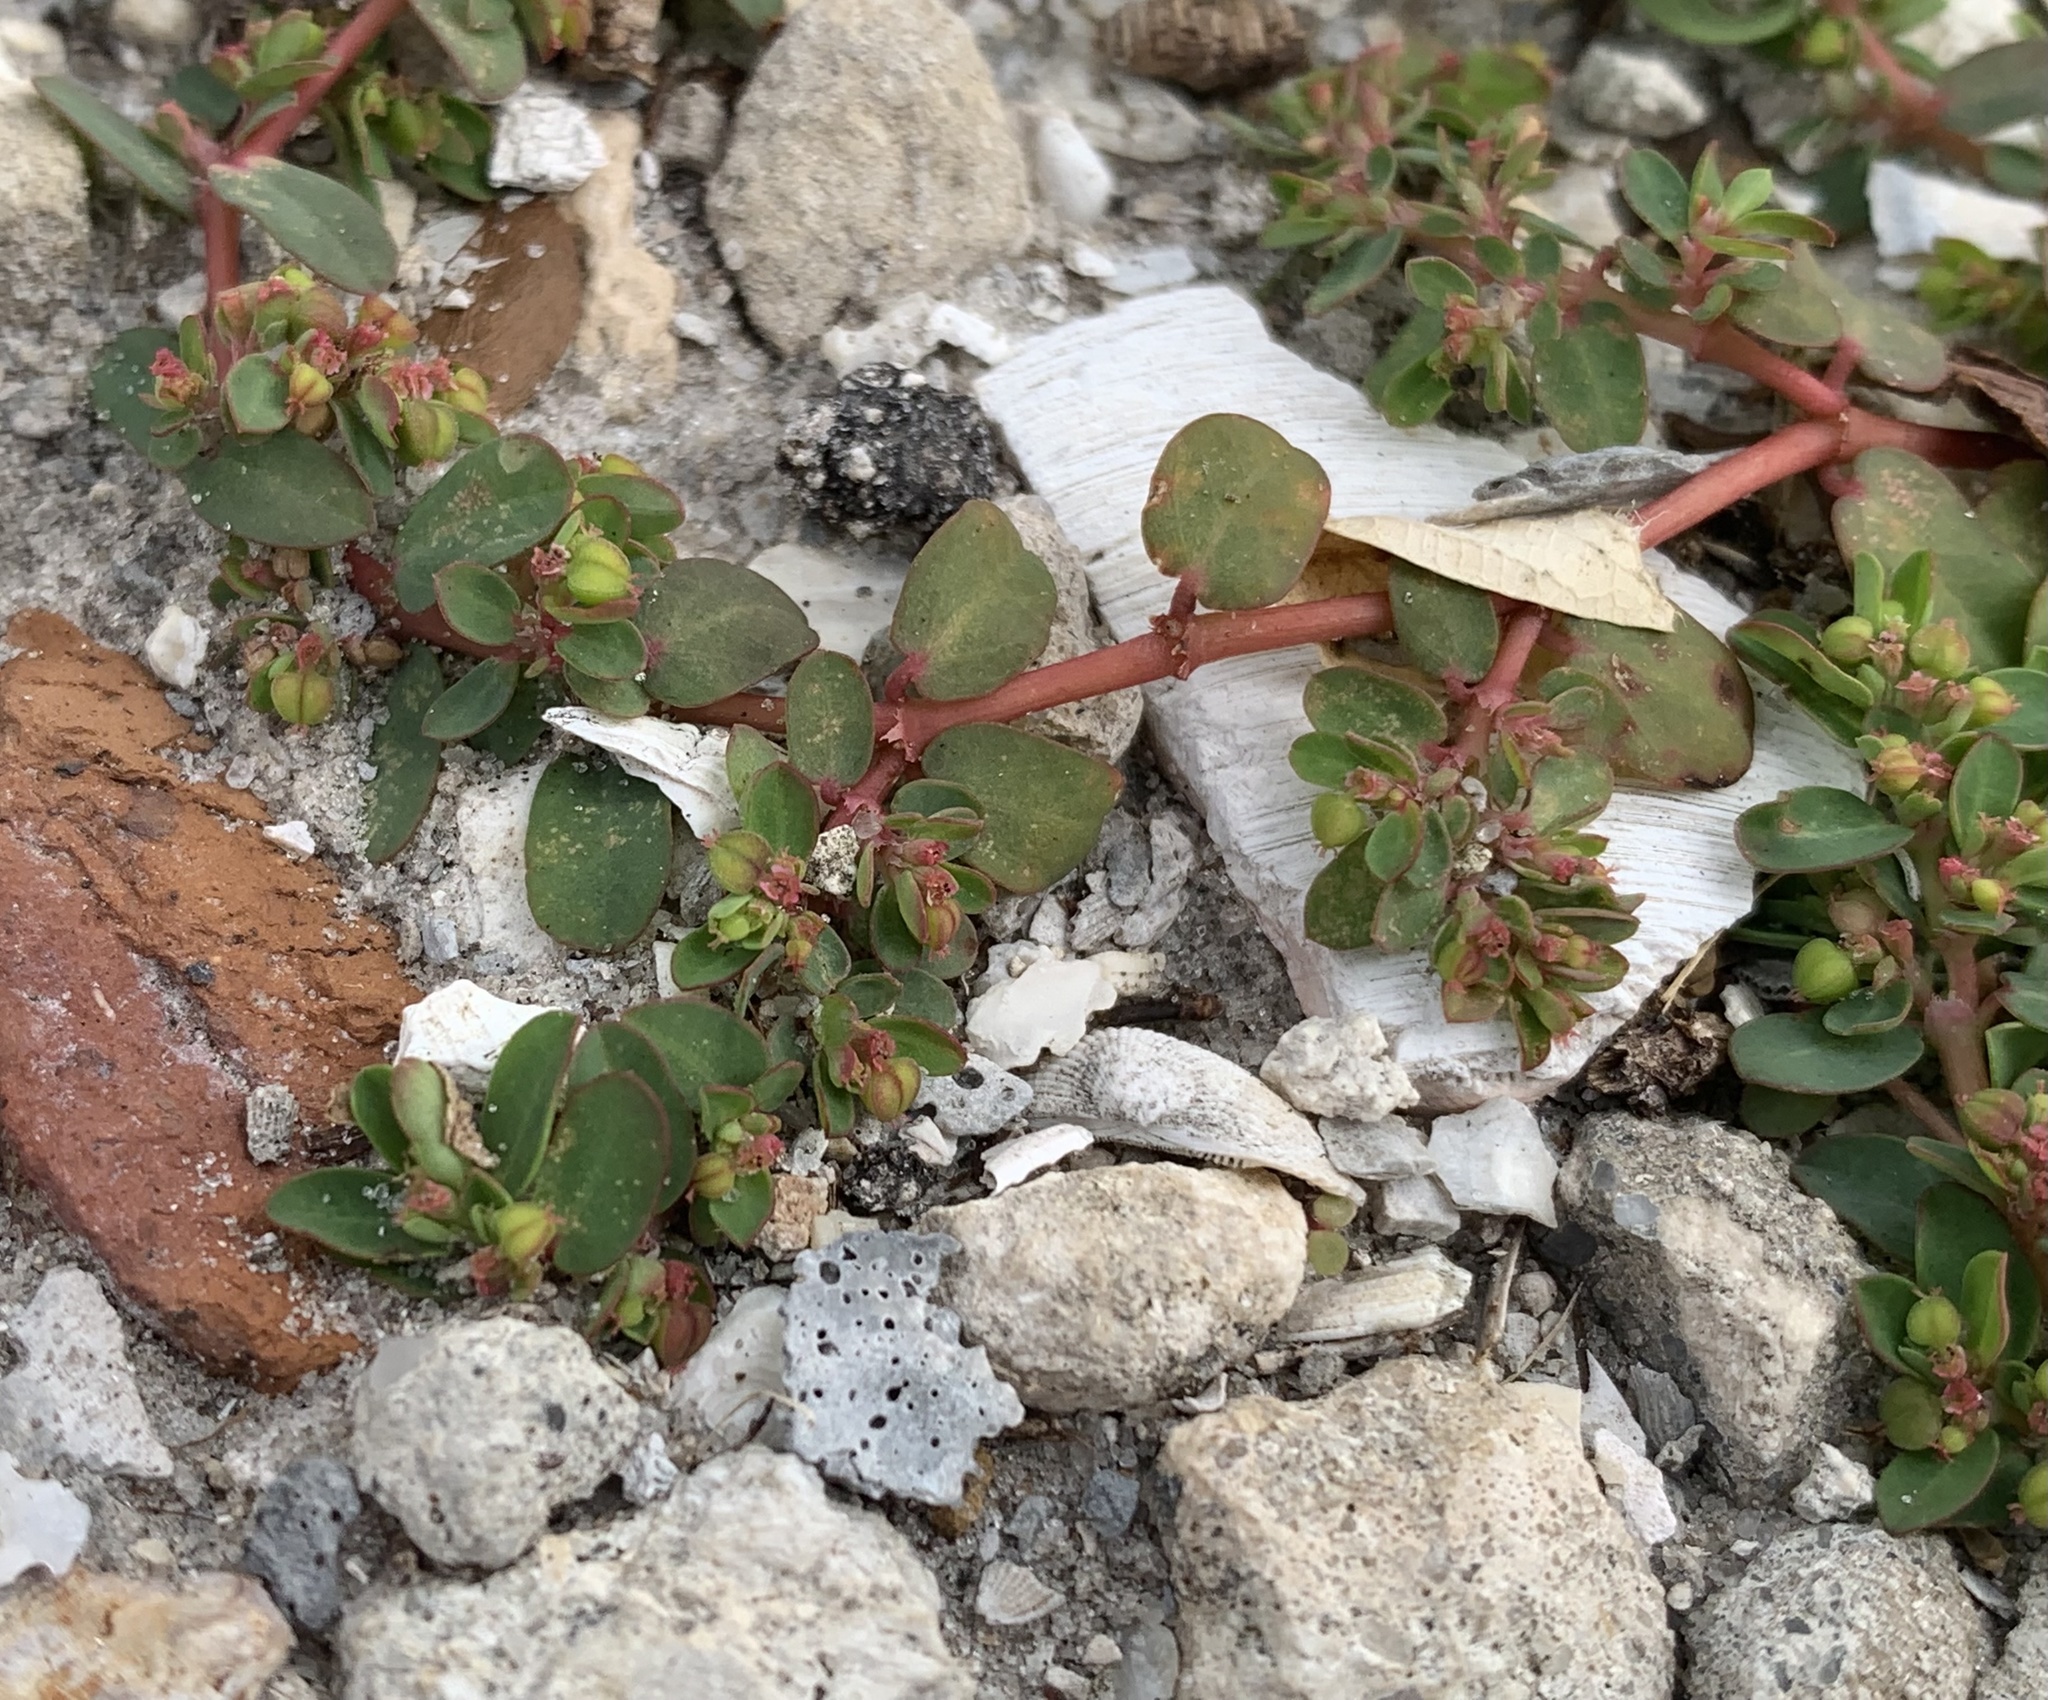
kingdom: Plantae
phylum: Tracheophyta
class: Magnoliopsida
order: Malpighiales
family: Euphorbiaceae
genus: Euphorbia
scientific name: Euphorbia blodgettii
